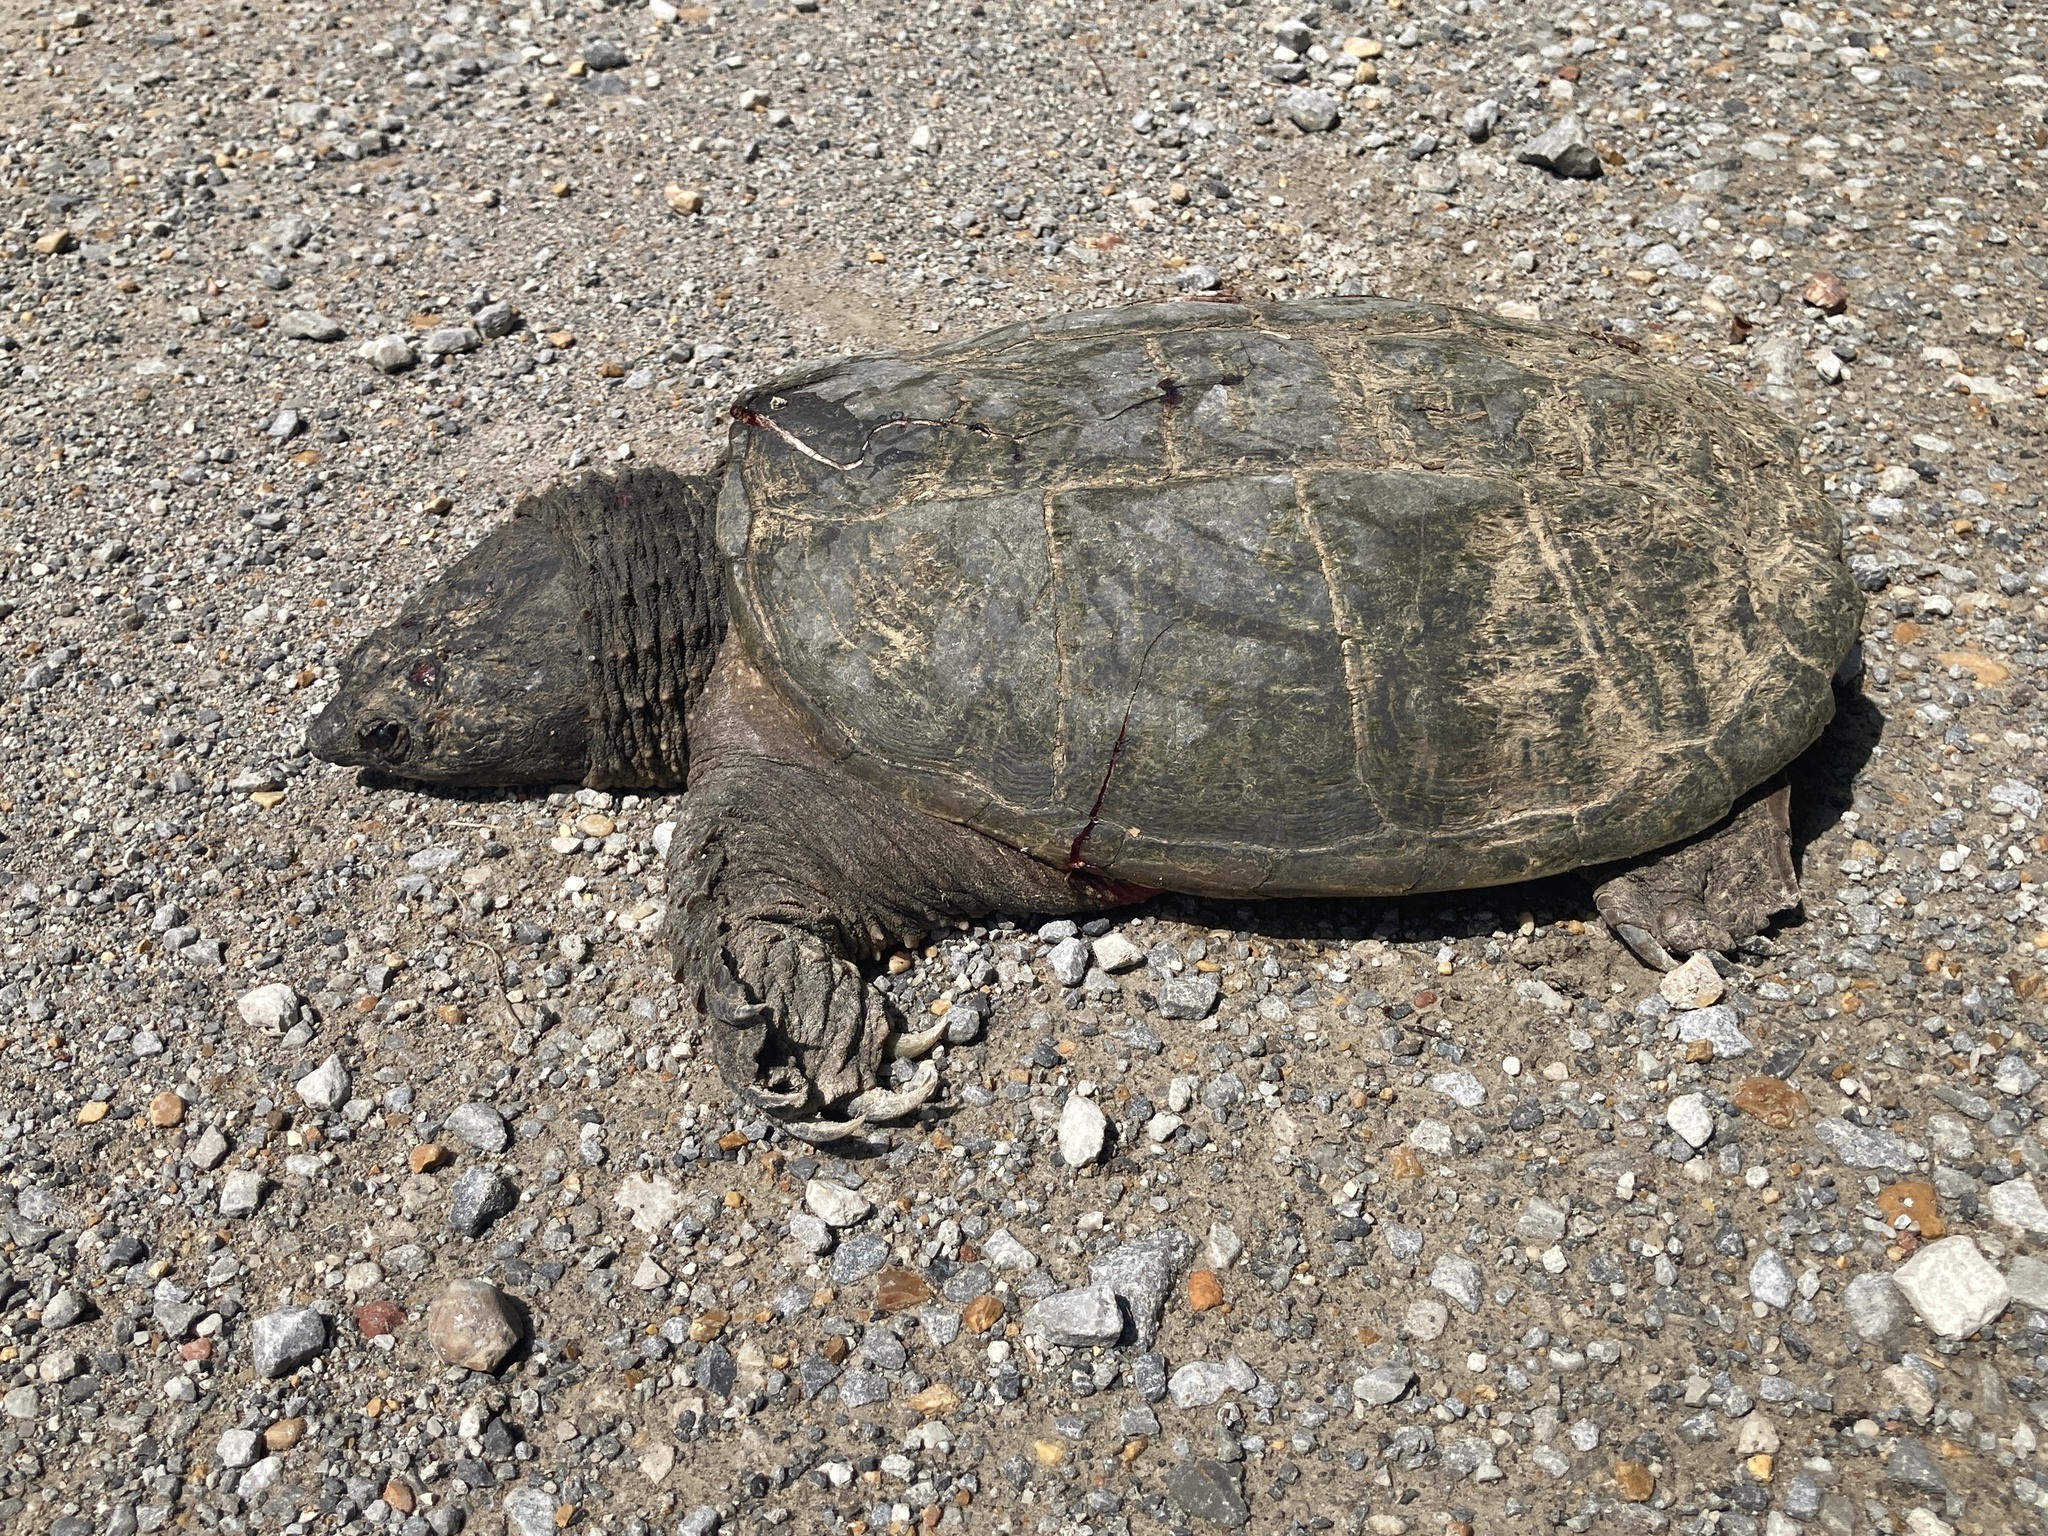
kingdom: Animalia
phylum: Chordata
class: Testudines
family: Chelydridae
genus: Chelydra
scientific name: Chelydra serpentina
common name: Common snapping turtle
